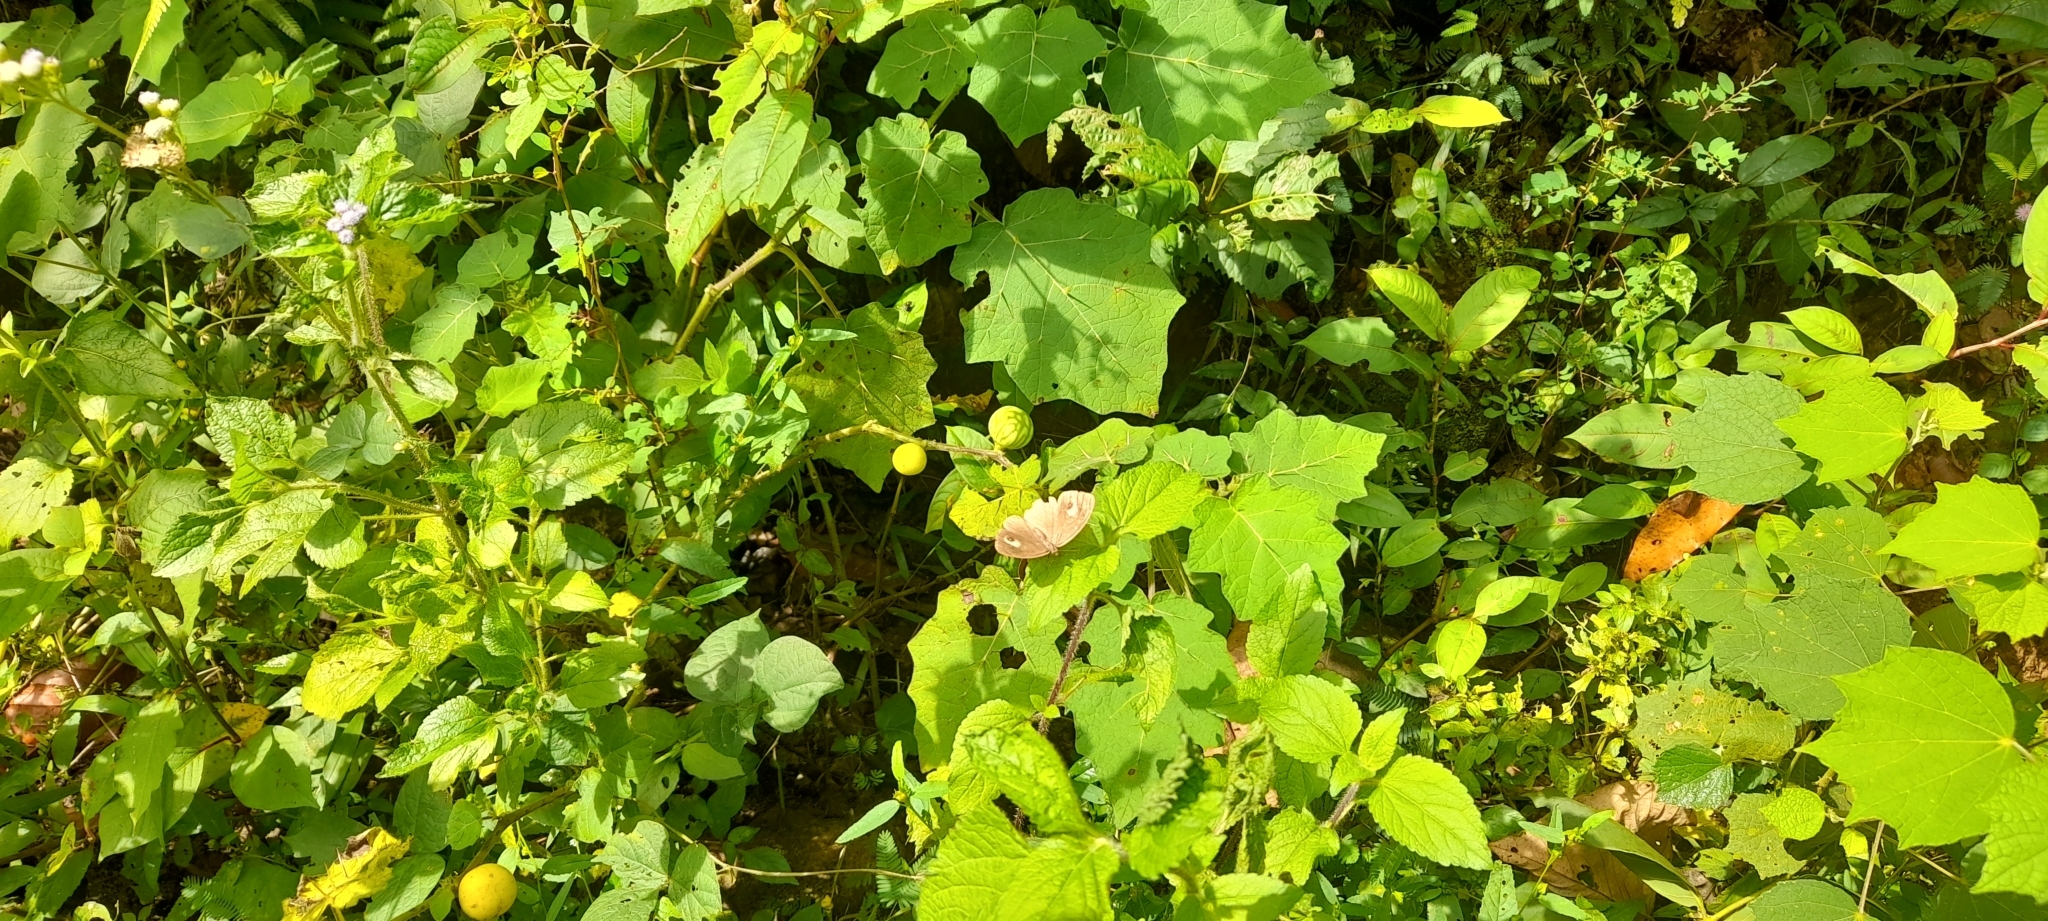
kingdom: Animalia
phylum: Arthropoda
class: Insecta
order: Lepidoptera
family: Nymphalidae
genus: Mycalesis
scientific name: Mycalesis patnia
